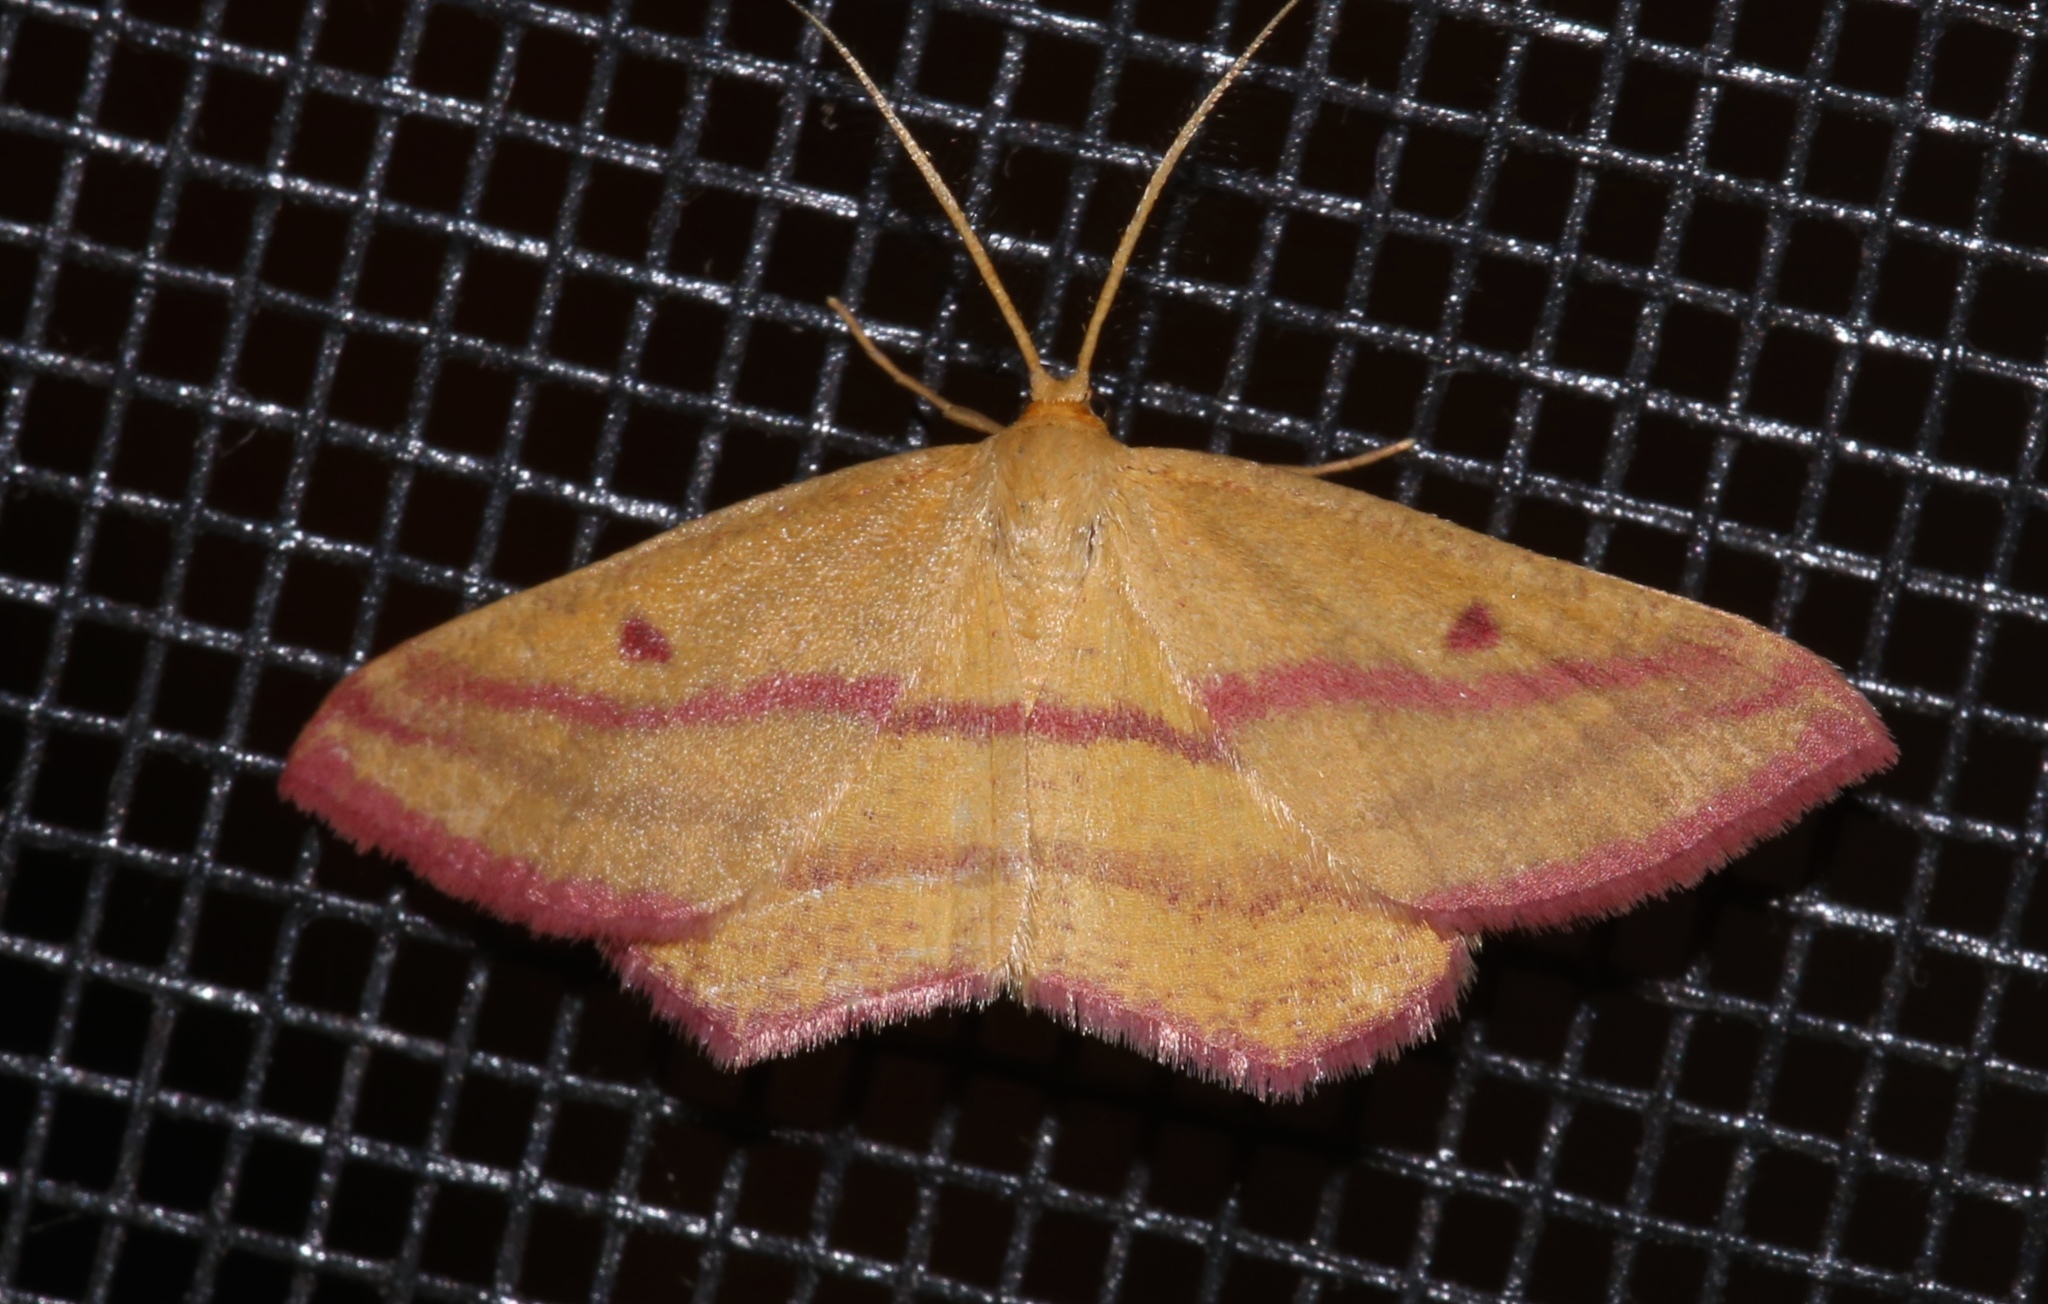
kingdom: Animalia
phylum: Arthropoda
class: Insecta
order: Lepidoptera
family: Geometridae
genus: Haematopis
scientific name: Haematopis grataria
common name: Chickweed geometer
